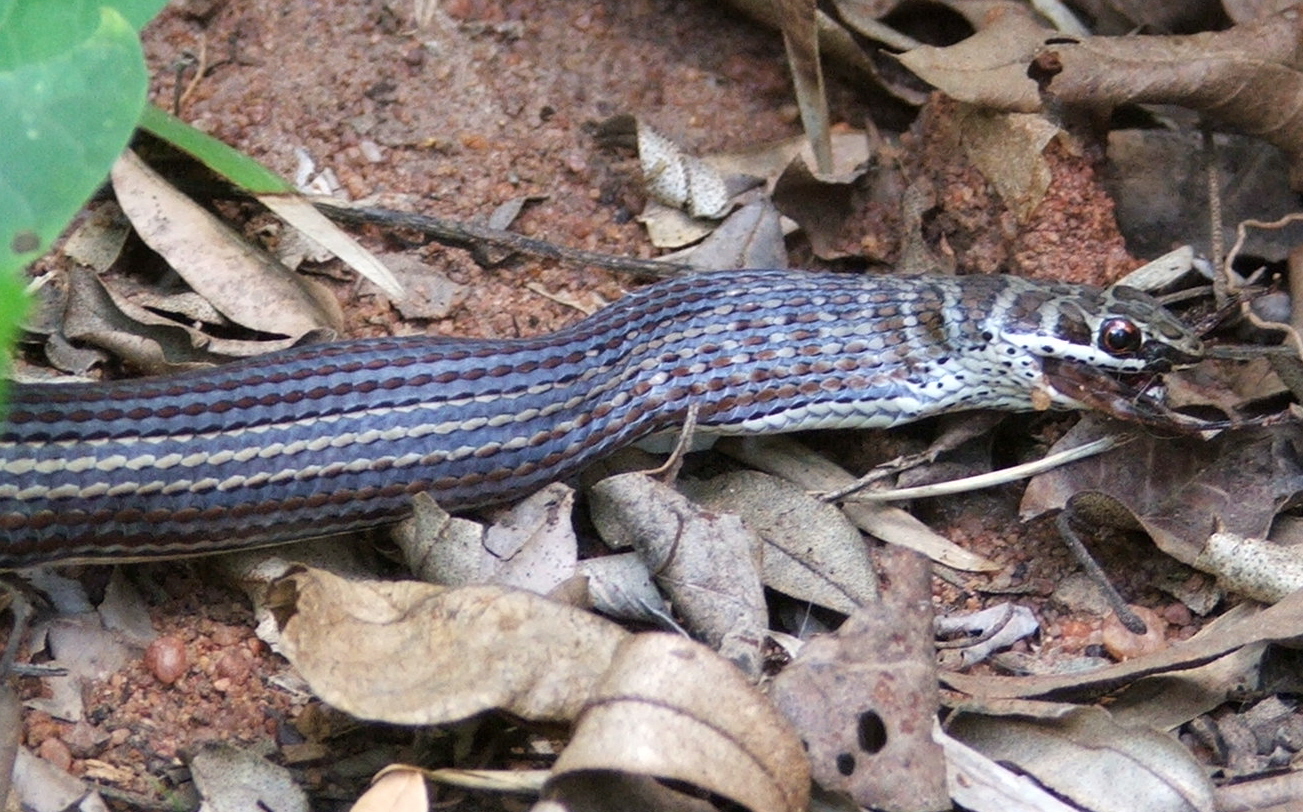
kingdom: Animalia
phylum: Chordata
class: Squamata
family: Psammophiidae
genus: Psammophis
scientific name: Psammophis subtaeniatus
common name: Stripe-bellied sand snake
